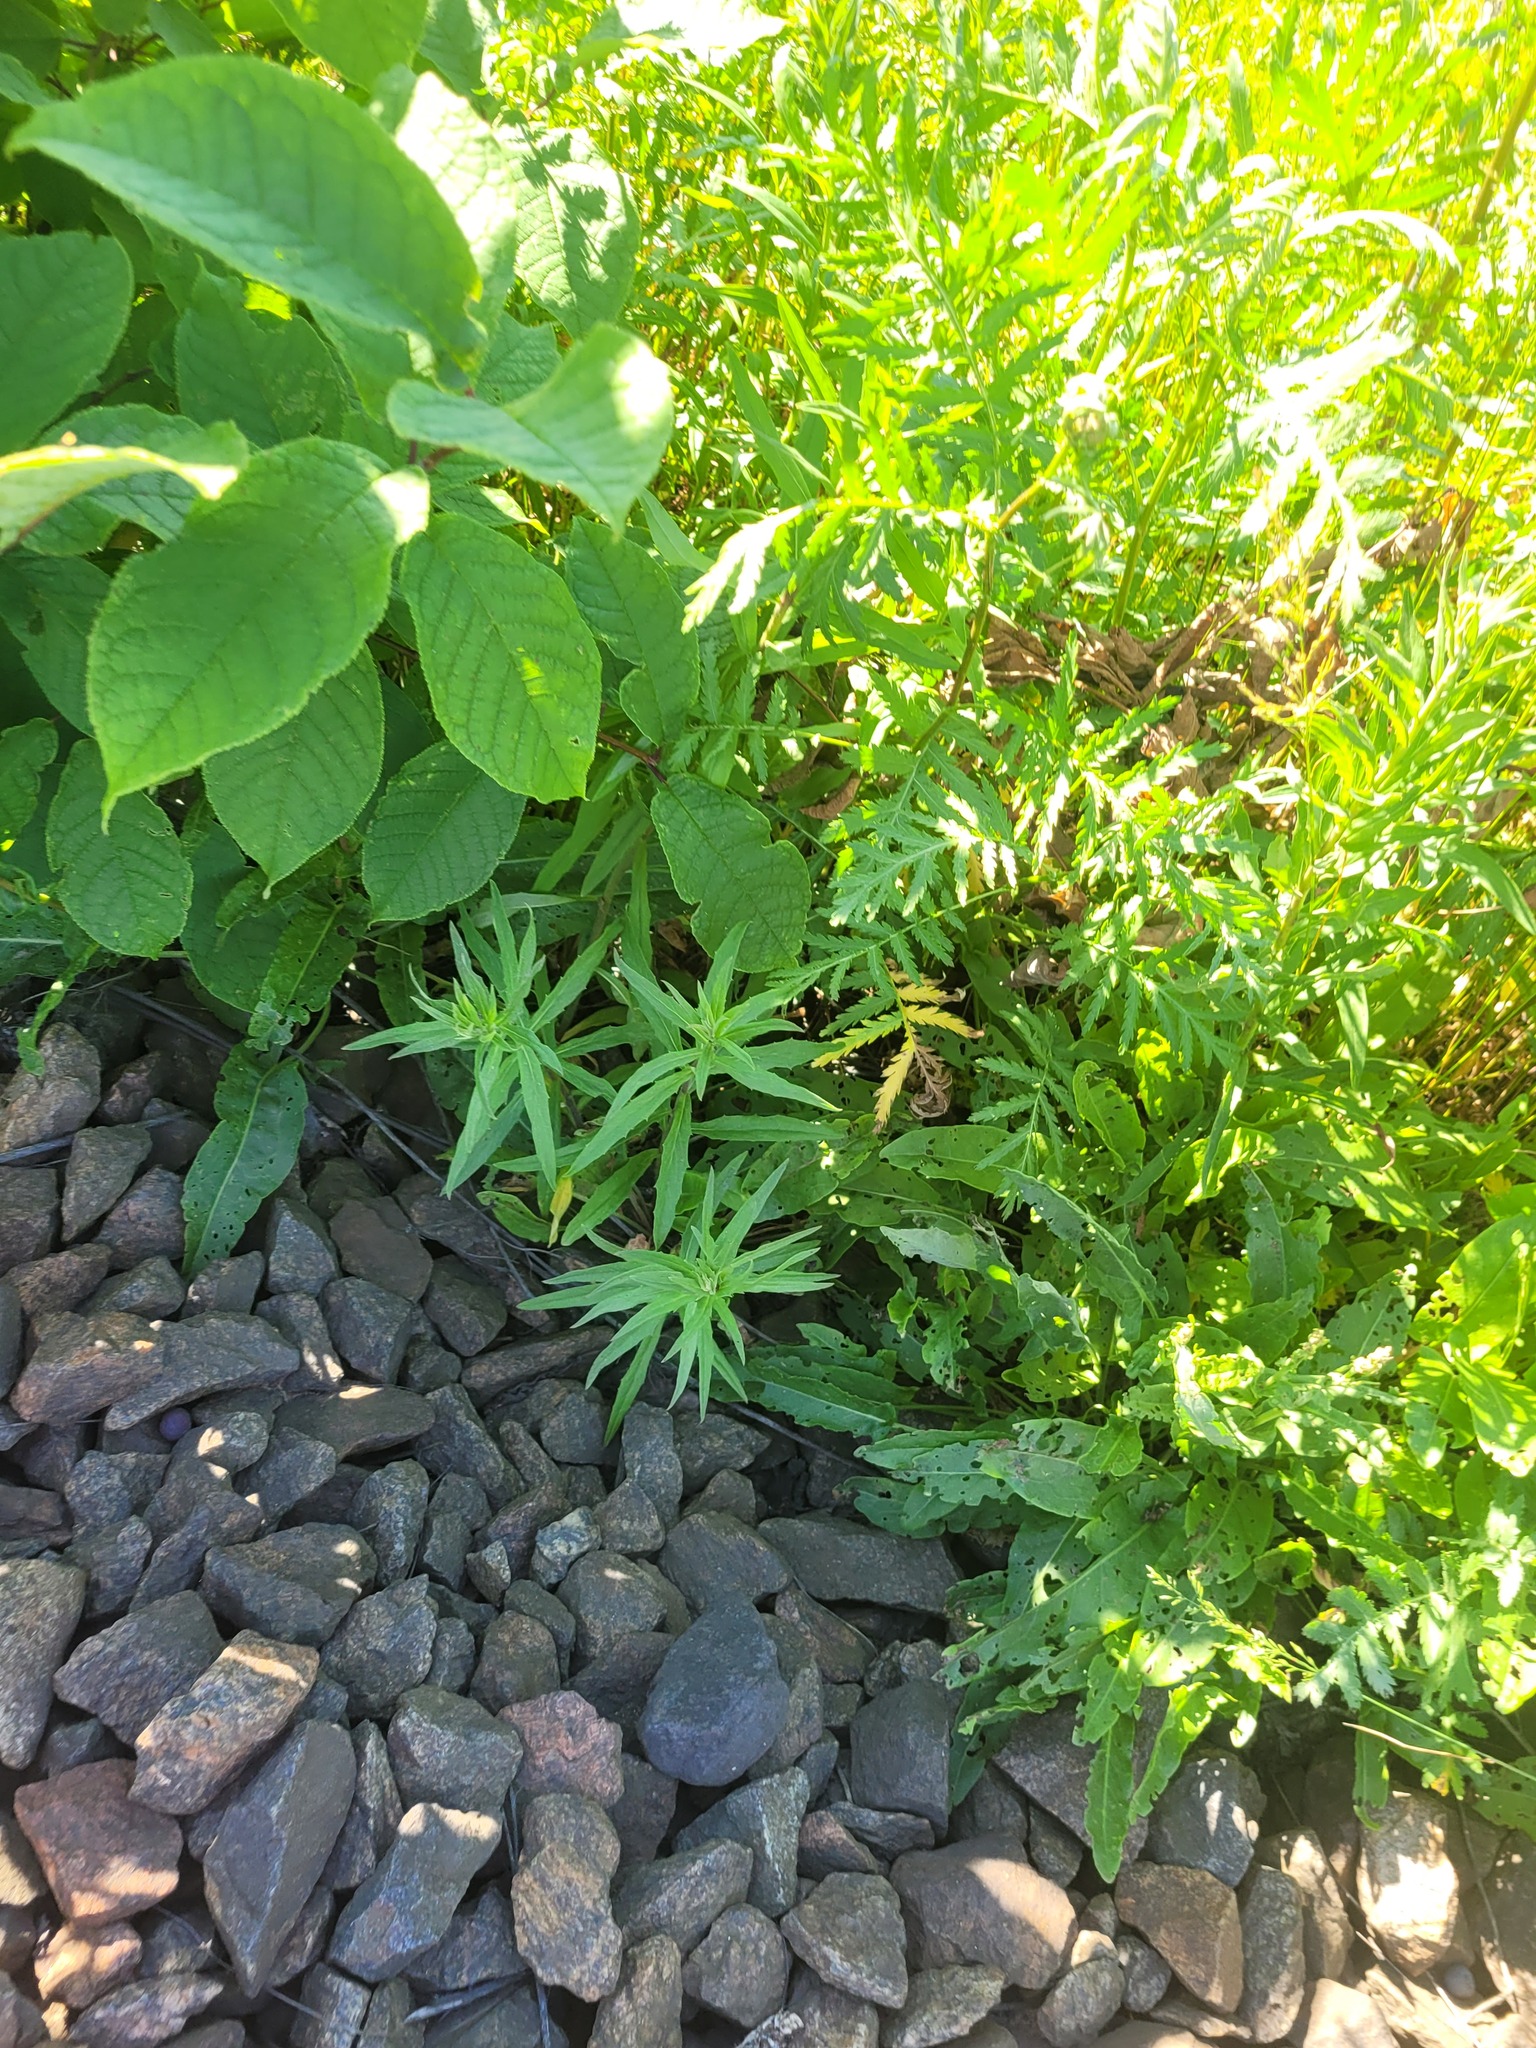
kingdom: Plantae
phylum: Tracheophyta
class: Magnoliopsida
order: Asterales
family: Asteraceae
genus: Hieracium
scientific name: Hieracium umbellatum
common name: Northern hawkweed
